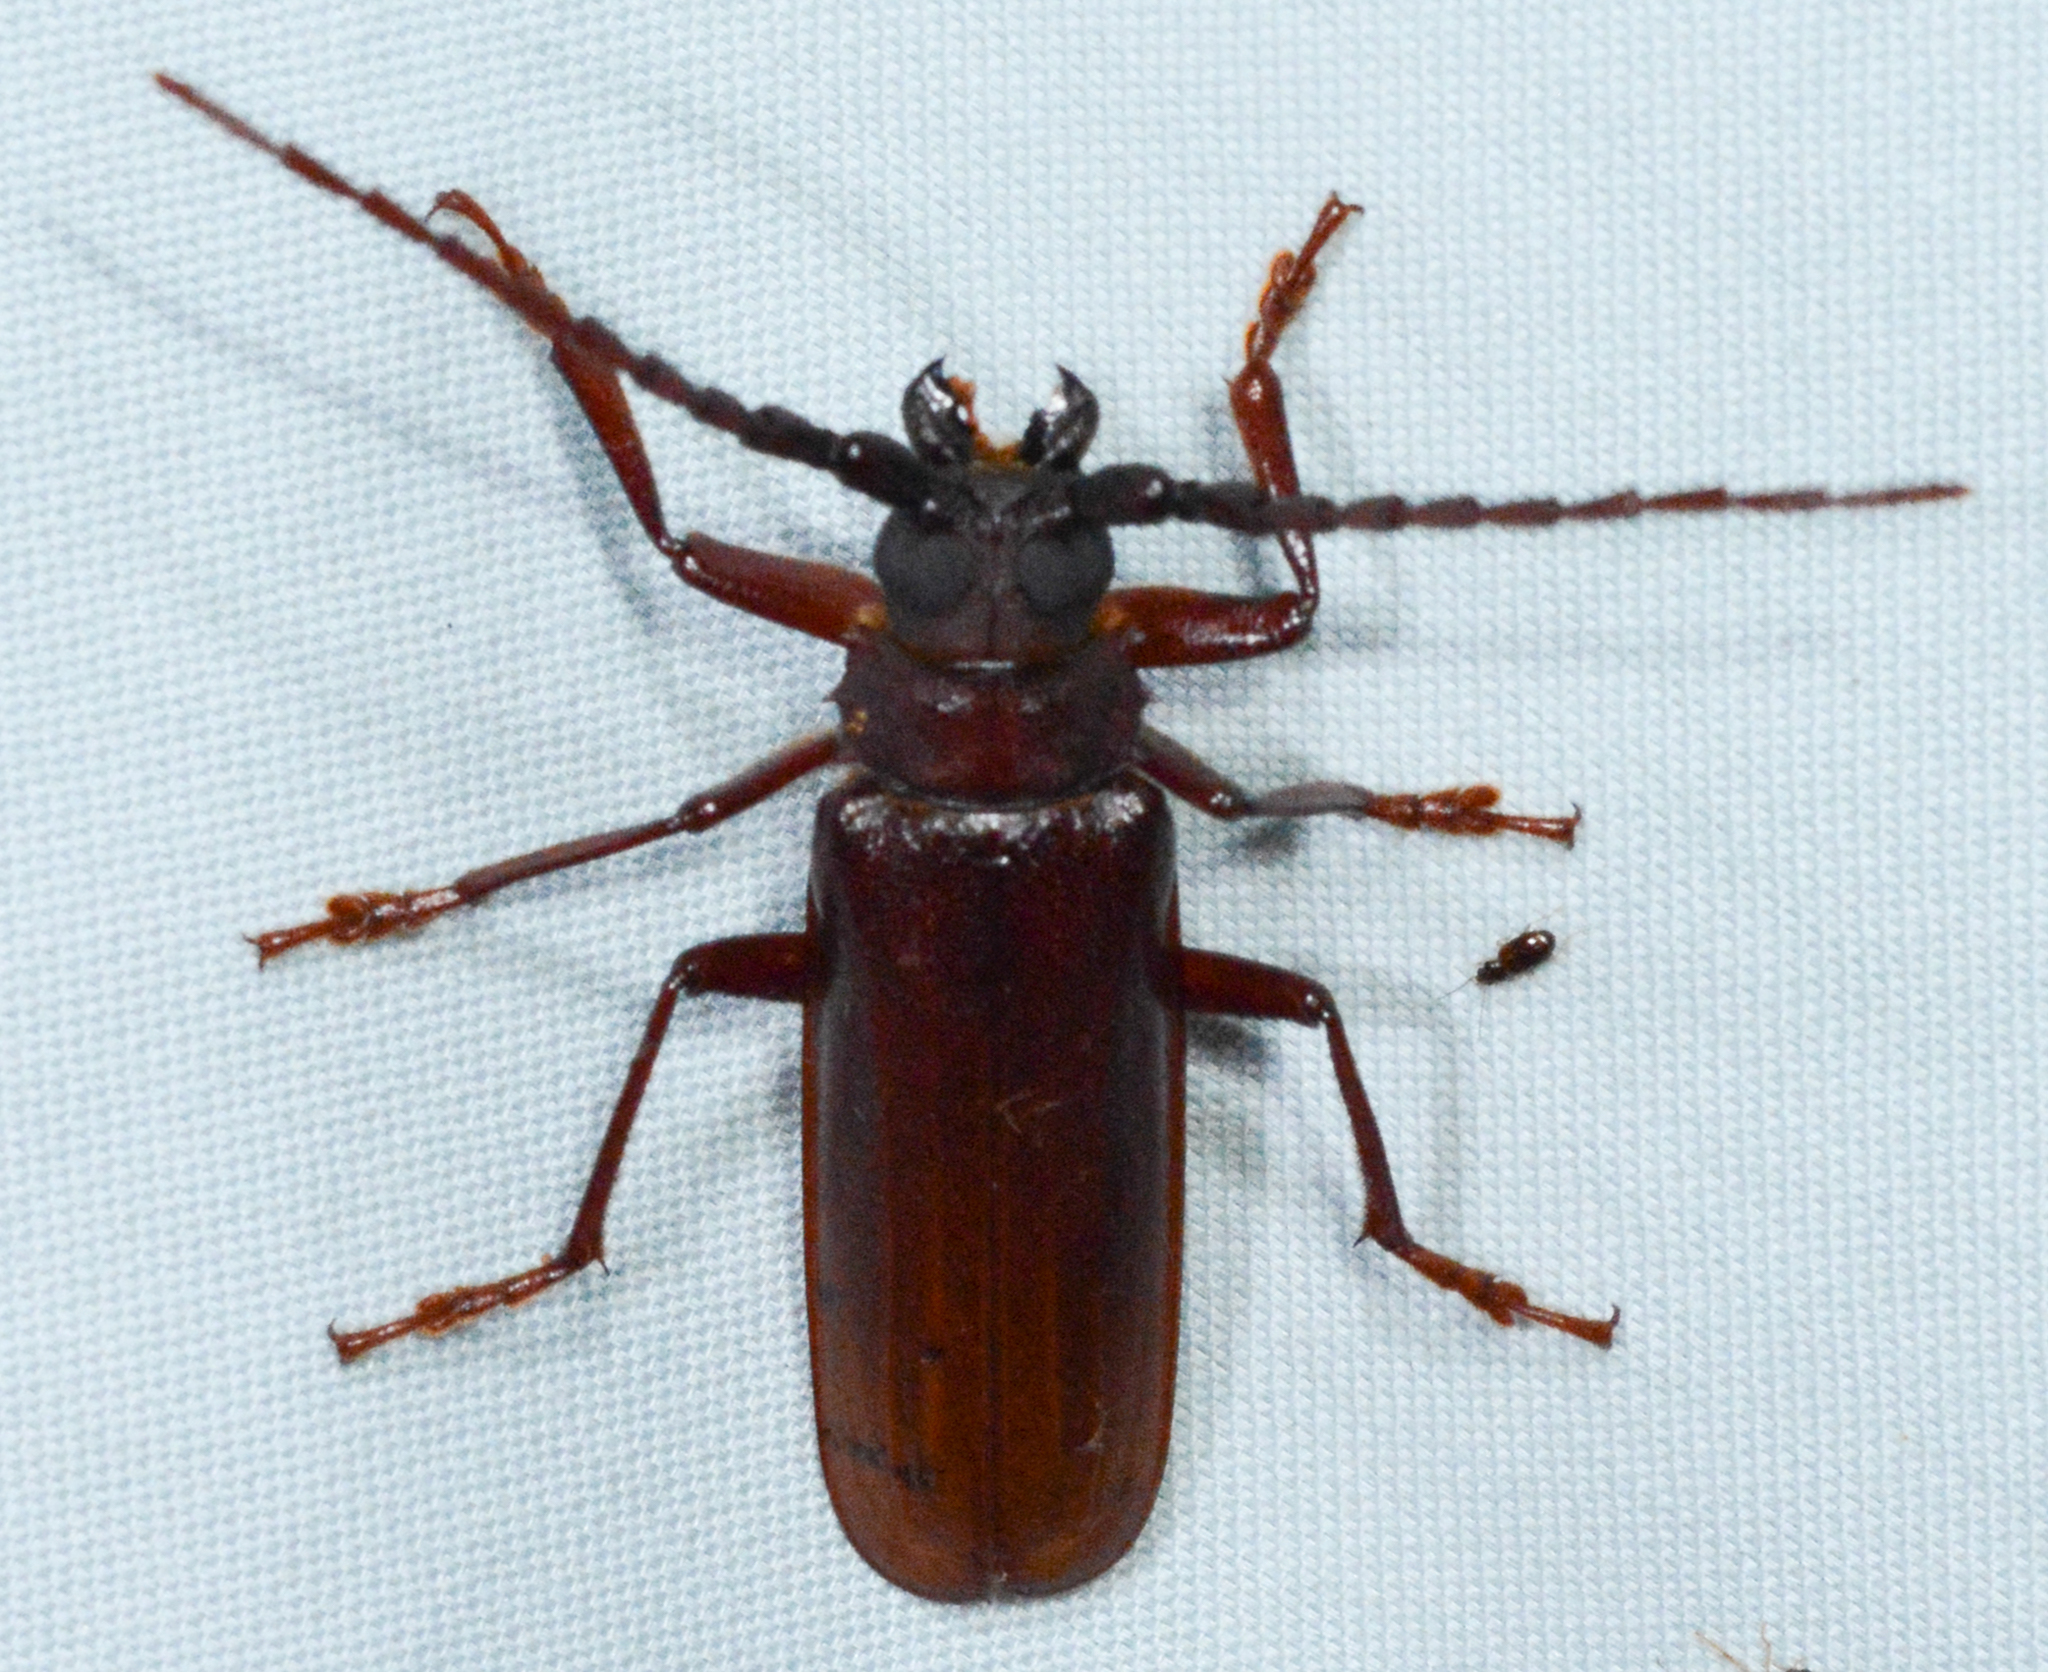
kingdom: Animalia
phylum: Arthropoda
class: Insecta
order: Coleoptera
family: Cerambycidae
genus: Orthosoma
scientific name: Orthosoma brunneum
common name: Brown prionid beetle
